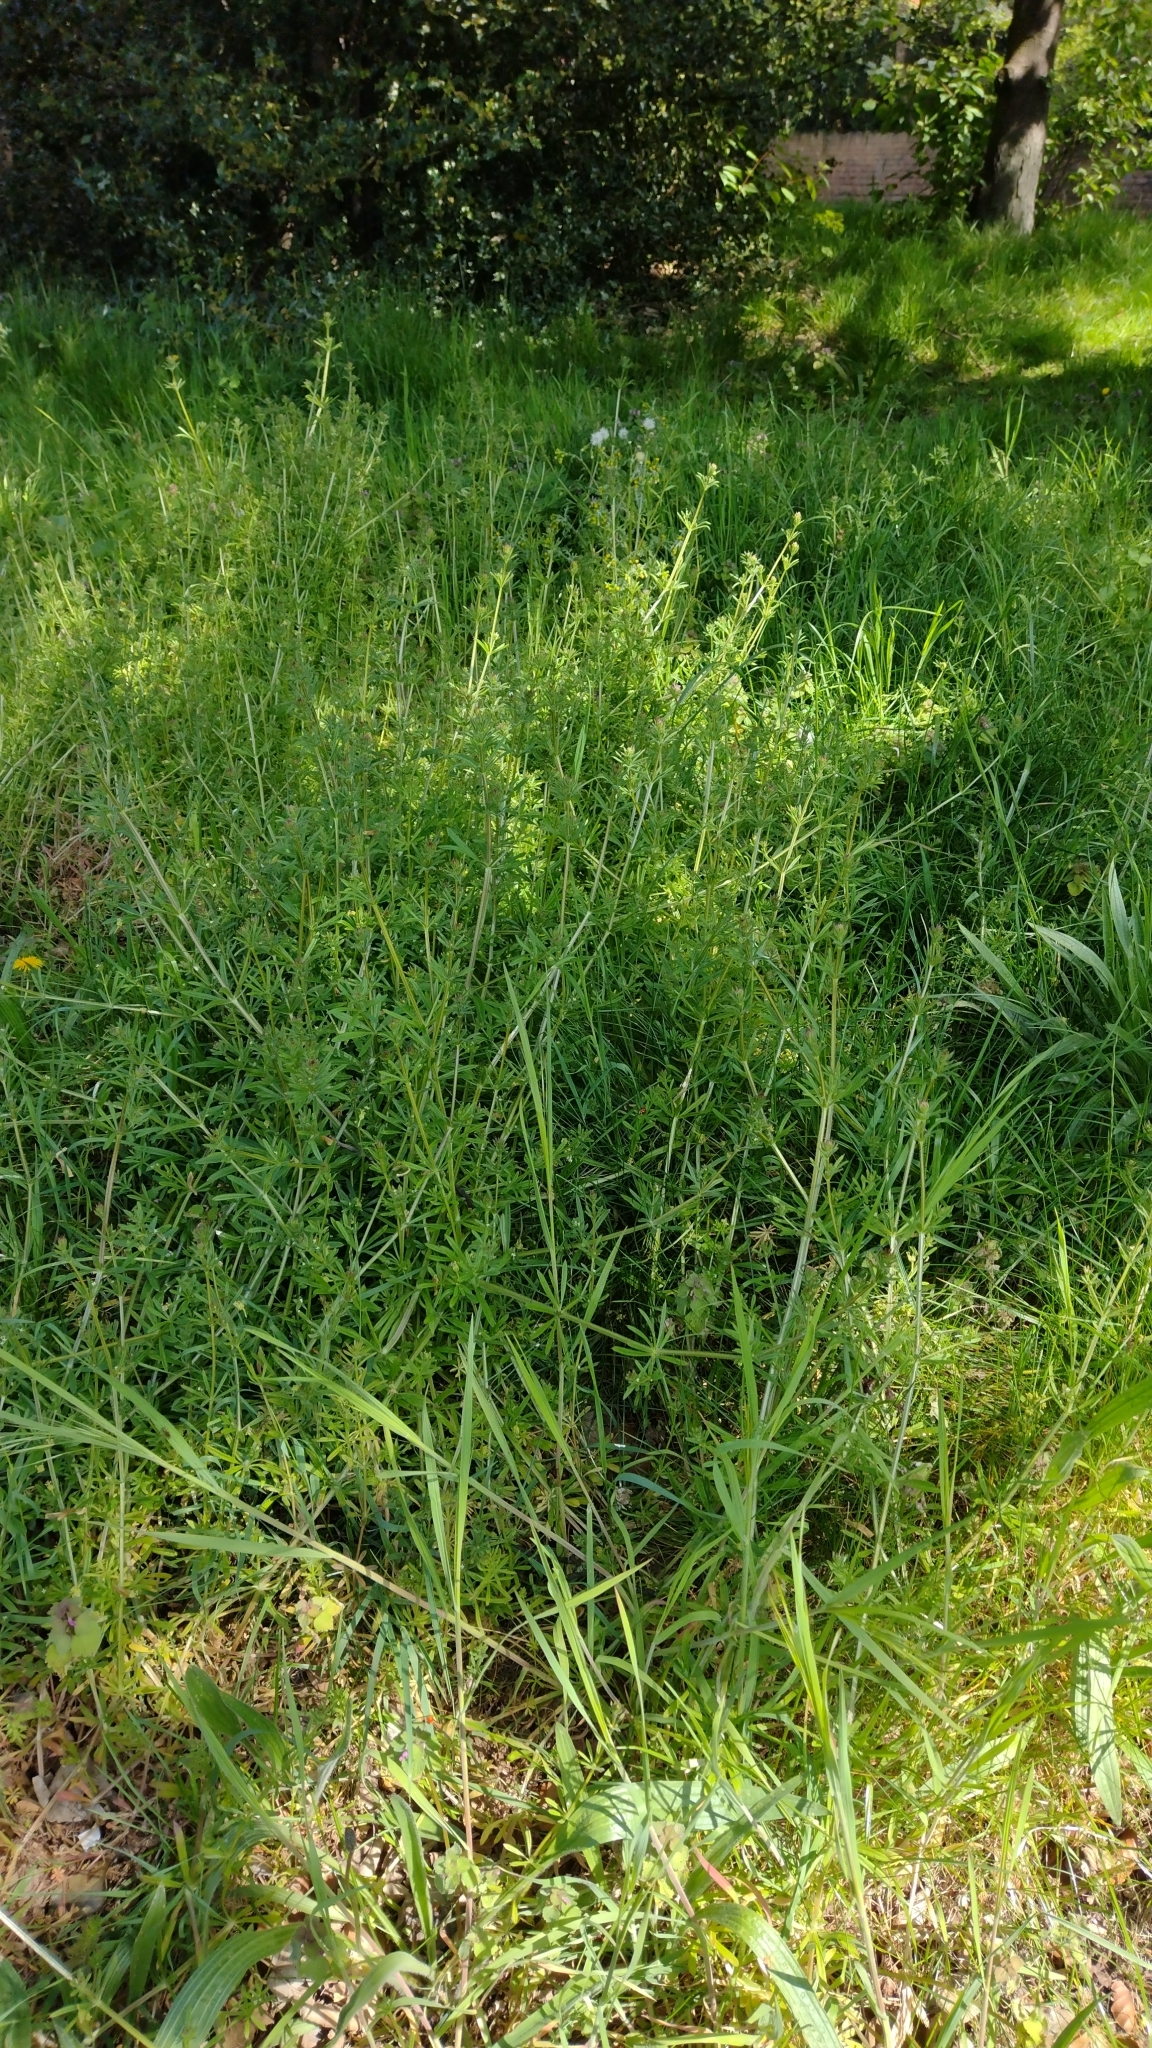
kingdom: Plantae
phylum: Tracheophyta
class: Magnoliopsida
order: Gentianales
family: Rubiaceae
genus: Galium
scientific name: Galium aparine
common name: Cleavers
